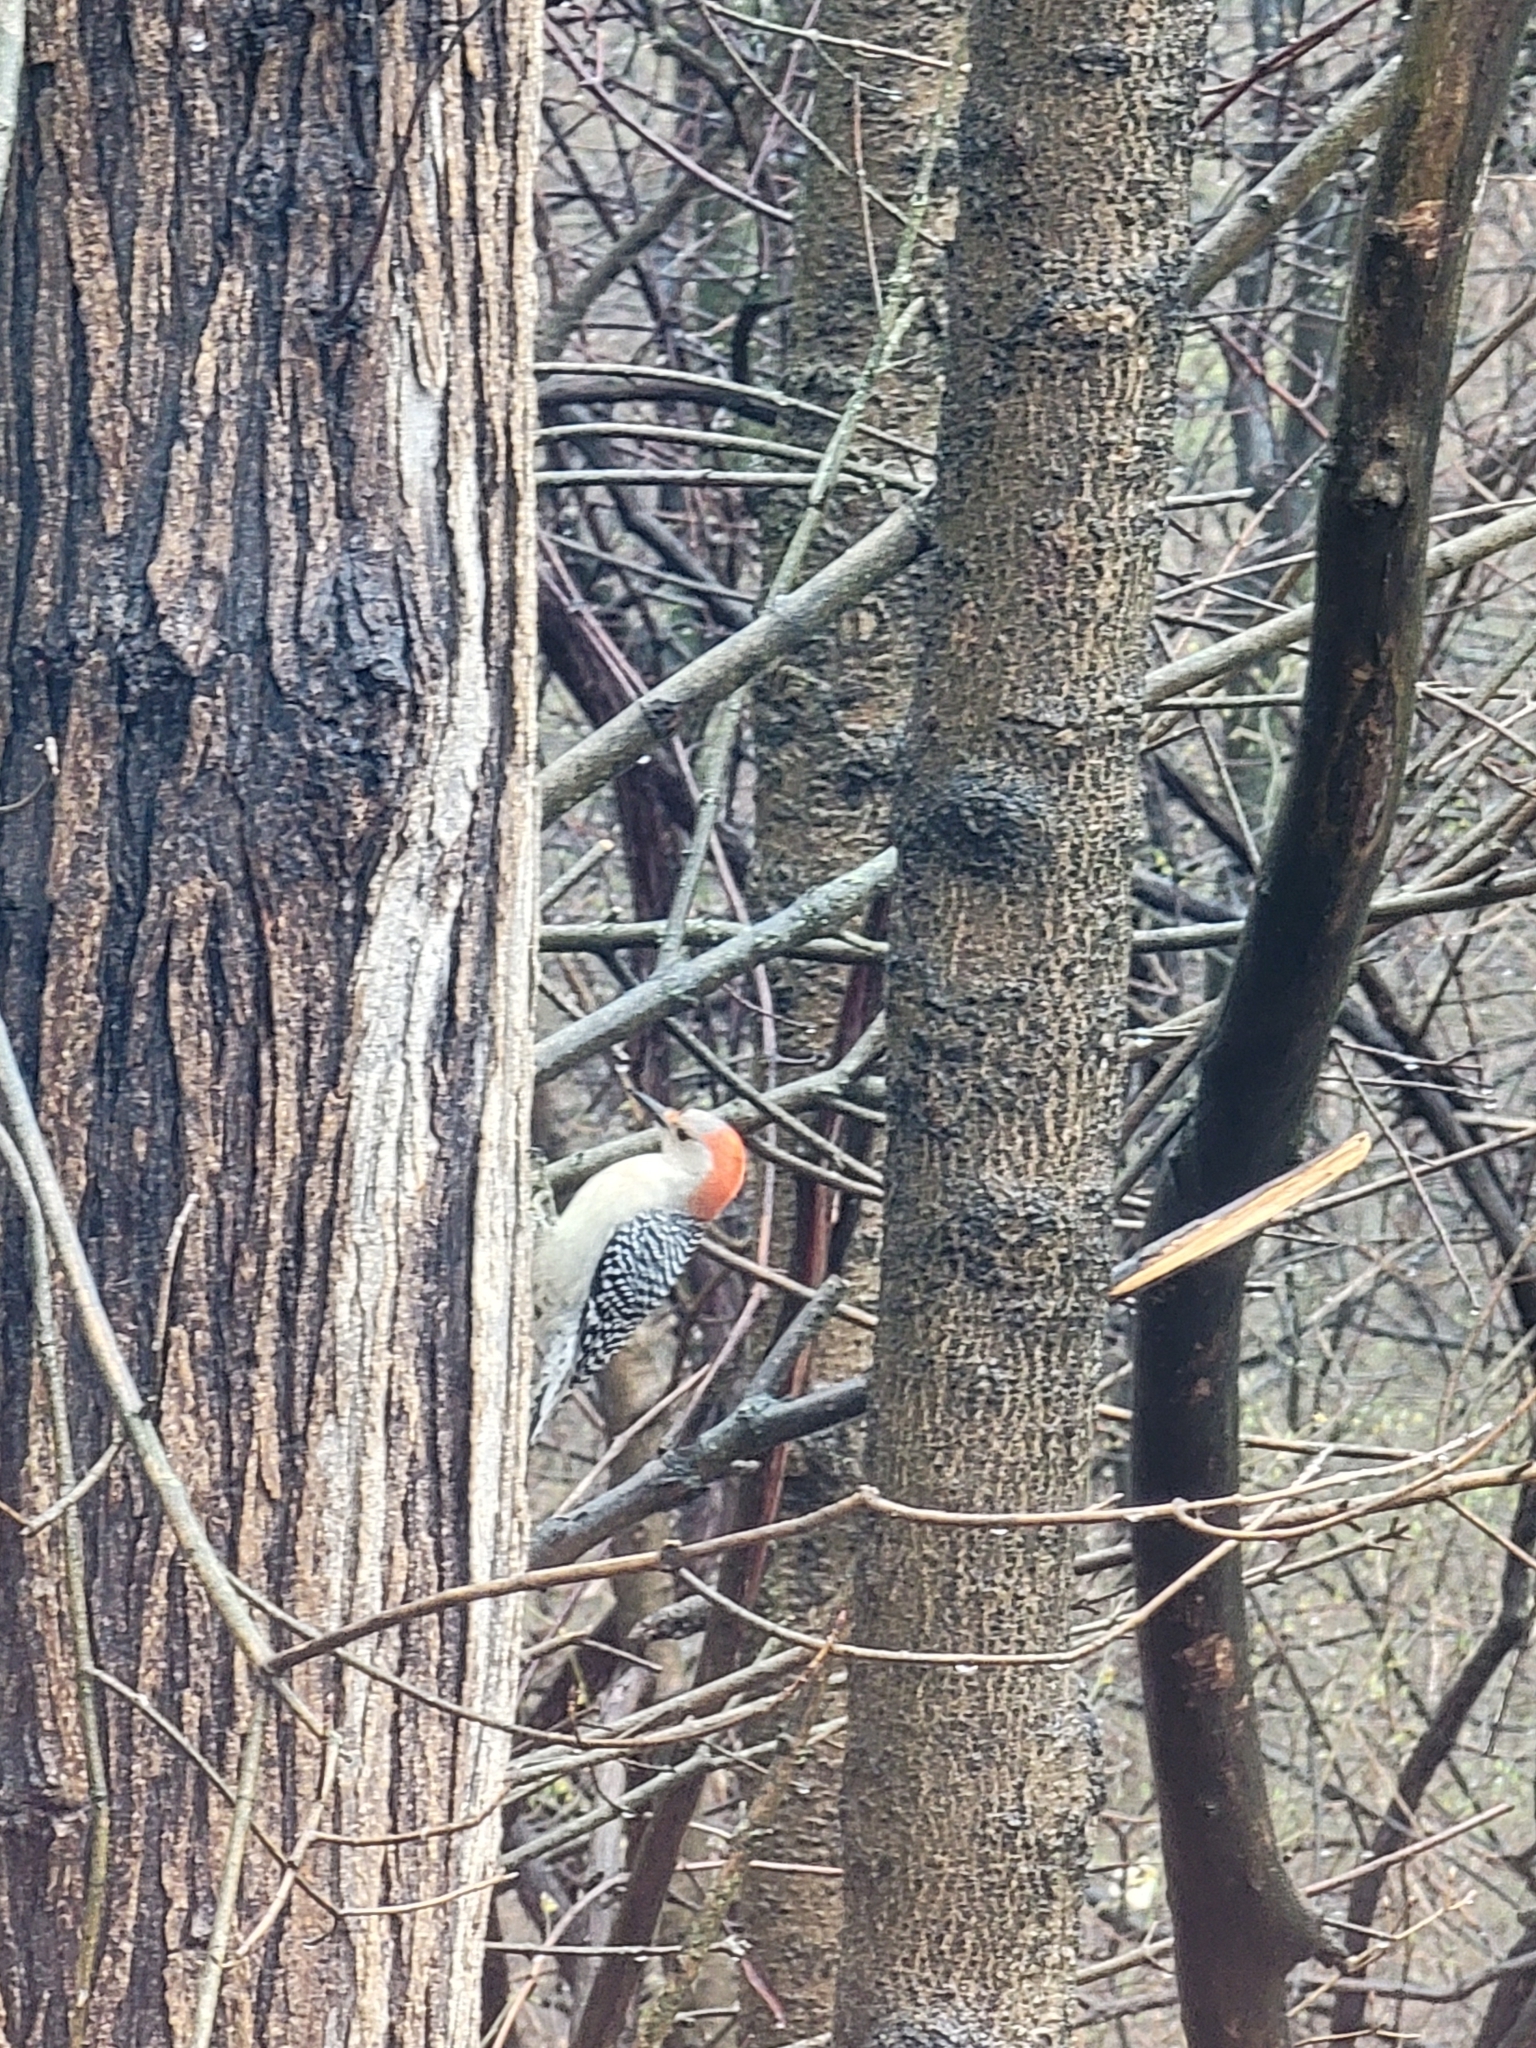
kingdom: Animalia
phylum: Chordata
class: Aves
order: Piciformes
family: Picidae
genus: Melanerpes
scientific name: Melanerpes carolinus
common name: Red-bellied woodpecker
